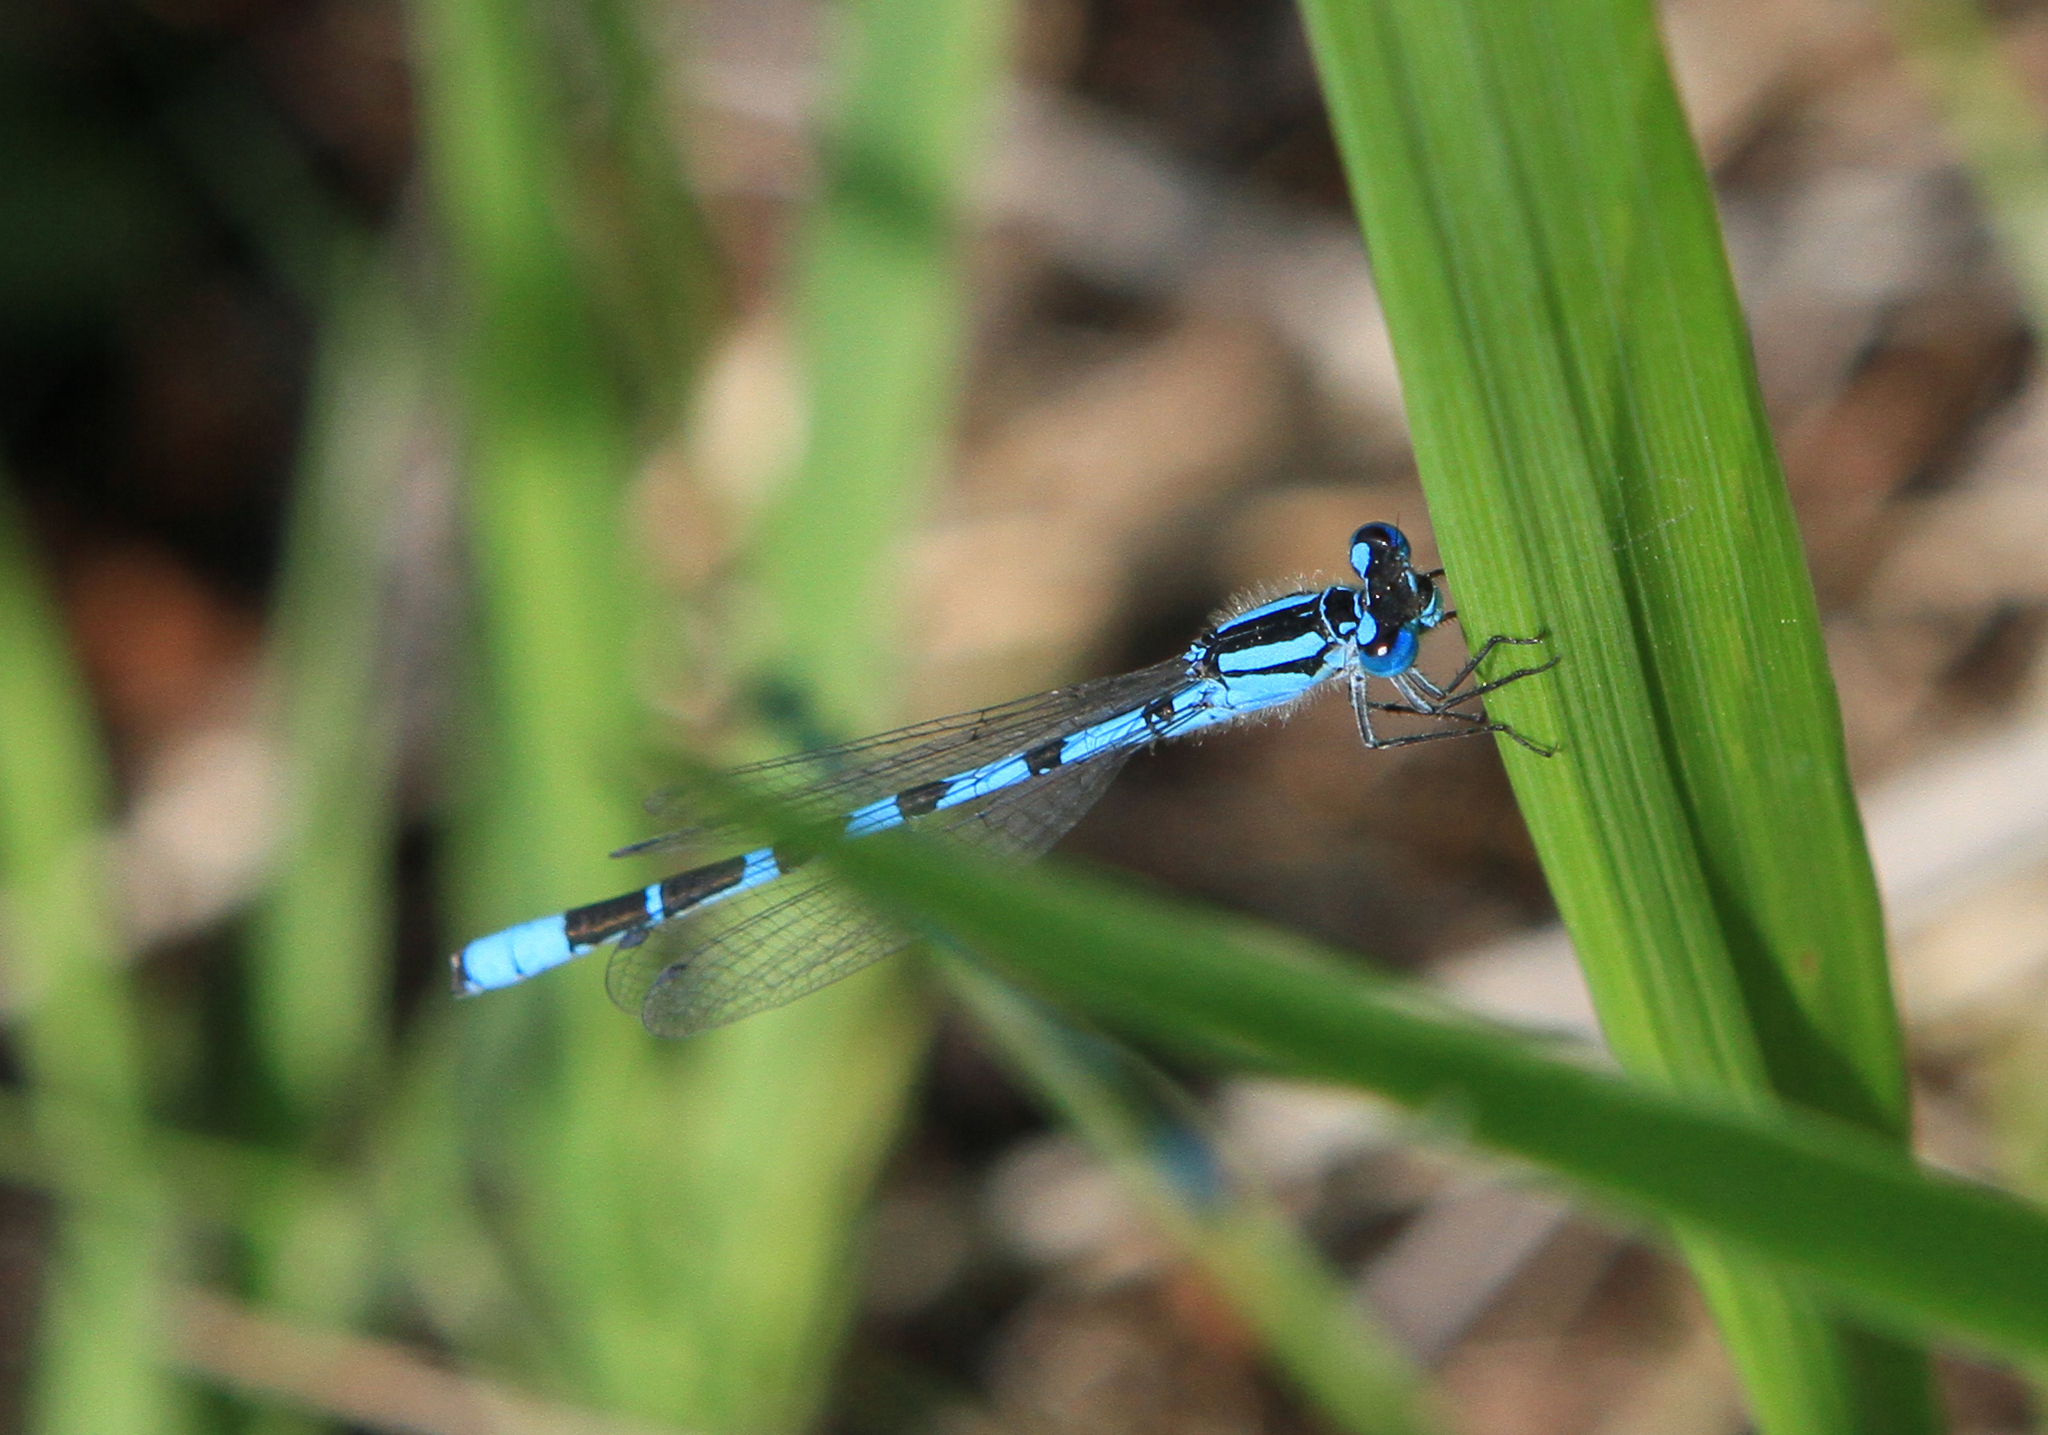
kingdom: Animalia
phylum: Arthropoda
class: Insecta
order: Odonata
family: Coenagrionidae
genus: Enallagma
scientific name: Enallagma cyathigerum
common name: Common blue damselfly
